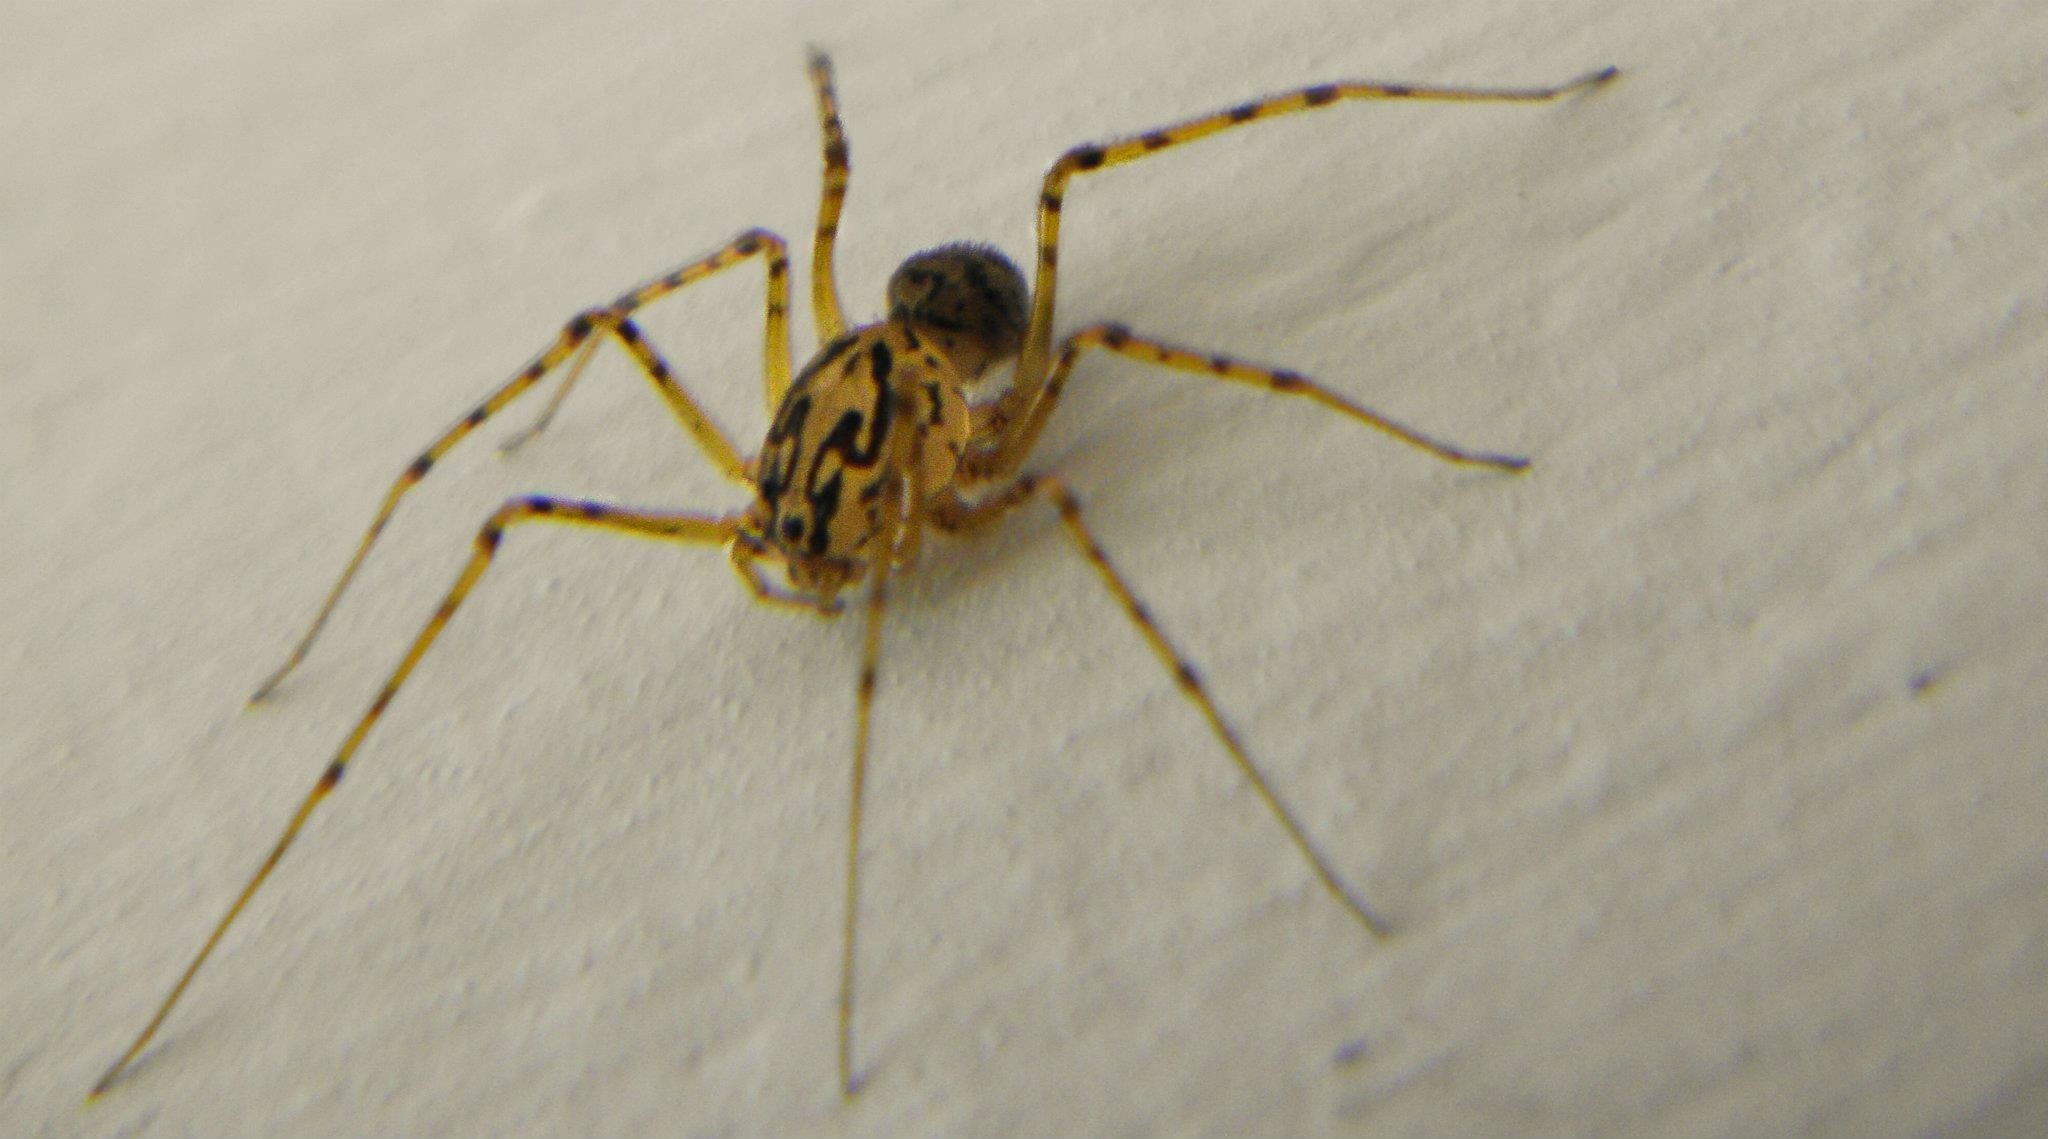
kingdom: Animalia
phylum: Arthropoda
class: Arachnida
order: Araneae
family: Scytodidae
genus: Scytodes
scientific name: Scytodes thoracica
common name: Spitting spider
